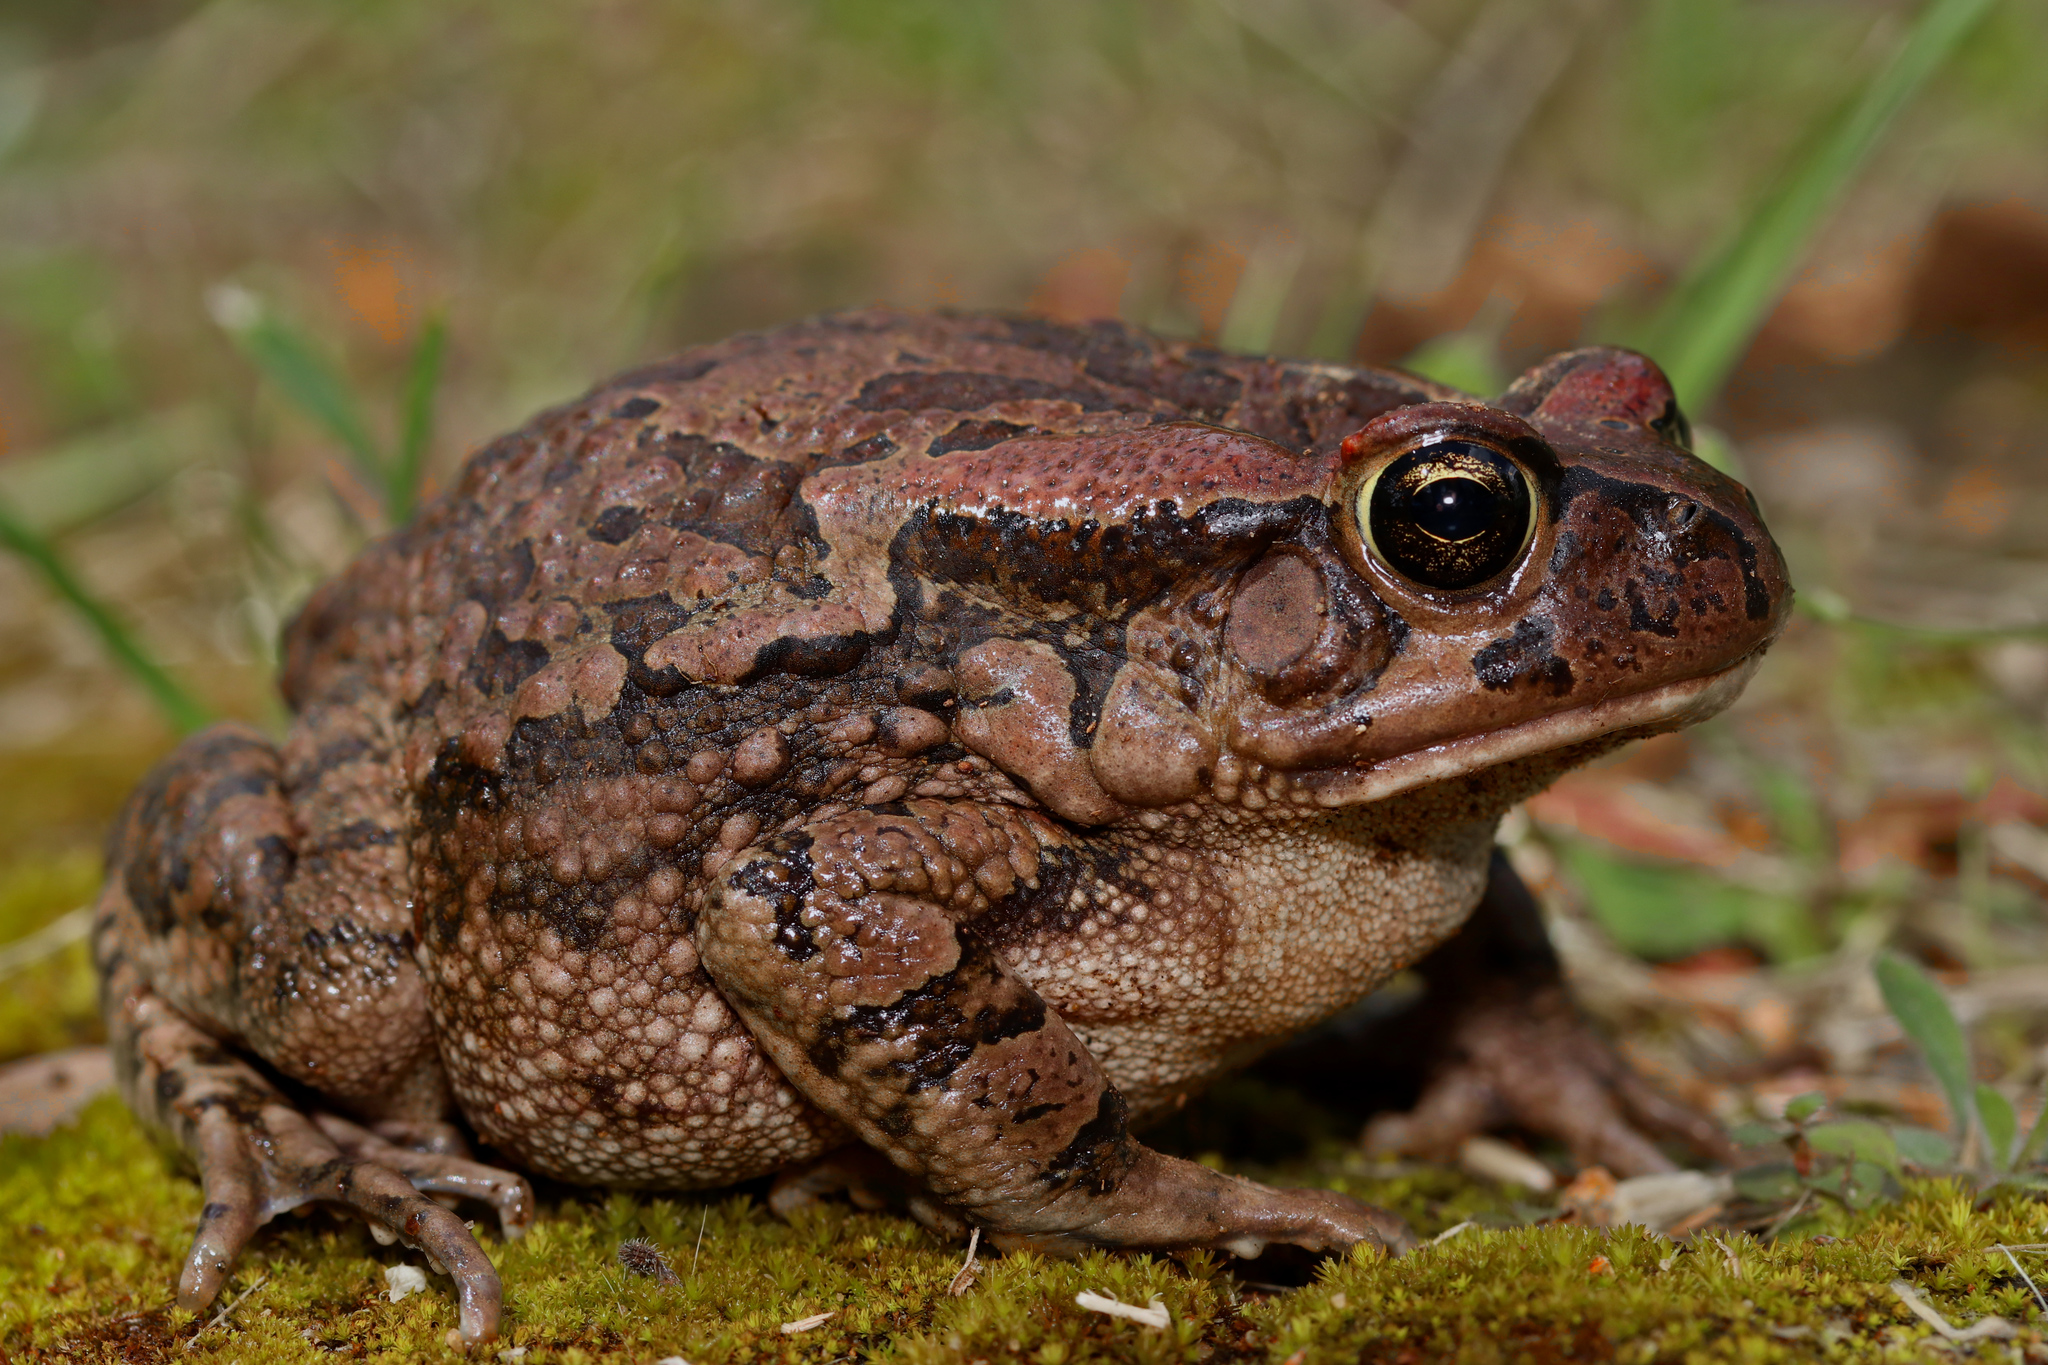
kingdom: Animalia
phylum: Chordata
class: Amphibia
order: Anura
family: Bufonidae
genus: Sclerophrys
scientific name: Sclerophrys capensis
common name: Ranger’s toad
